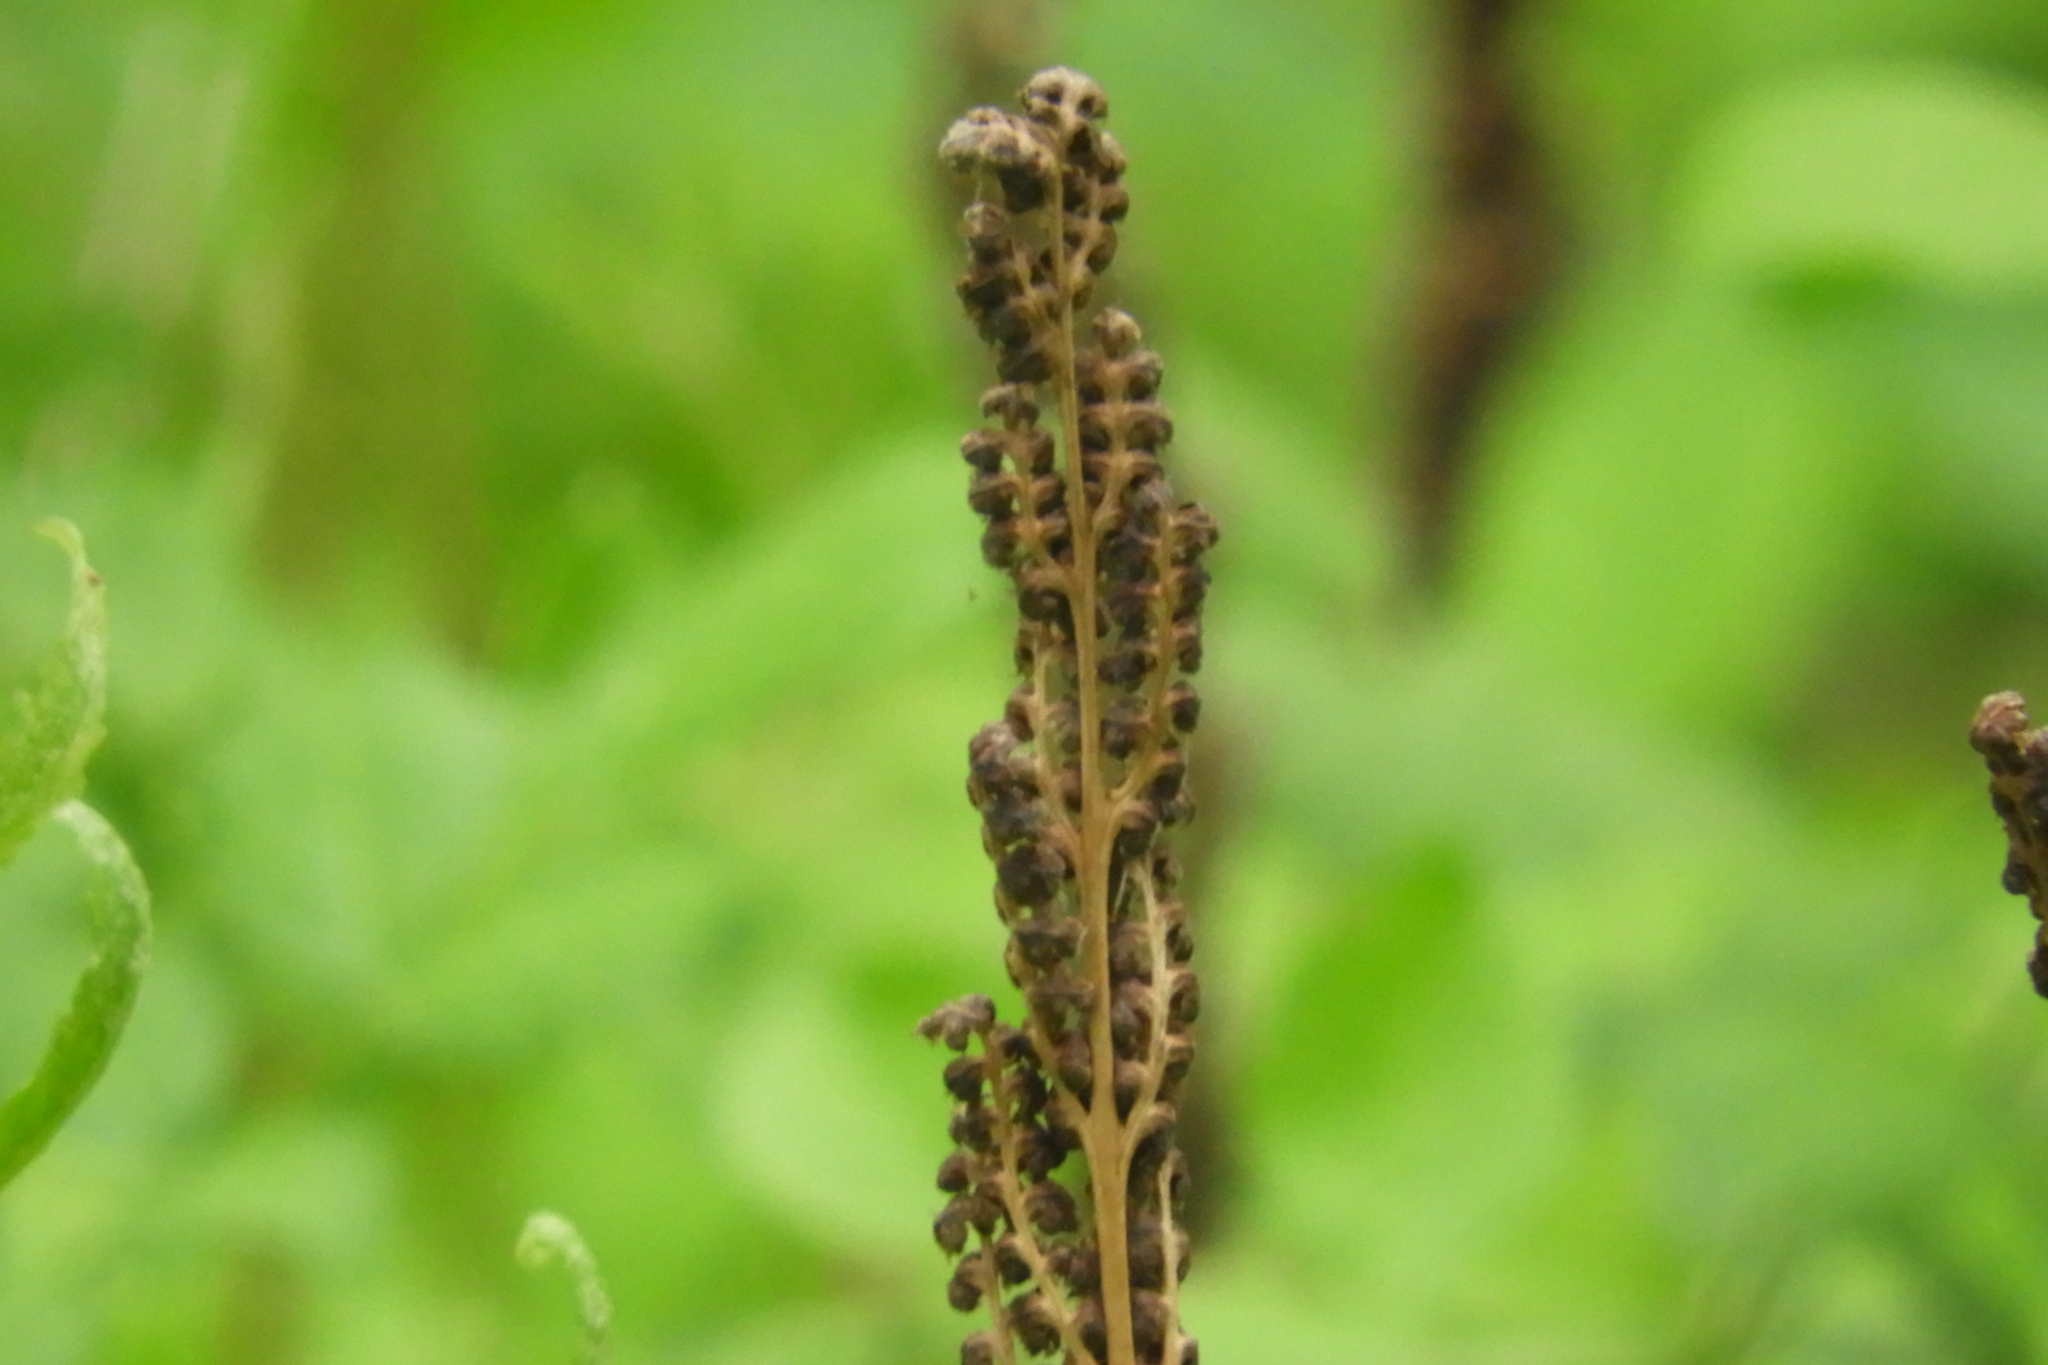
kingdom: Plantae
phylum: Tracheophyta
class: Polypodiopsida
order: Polypodiales
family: Onocleaceae
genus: Onoclea
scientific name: Onoclea sensibilis
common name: Sensitive fern
